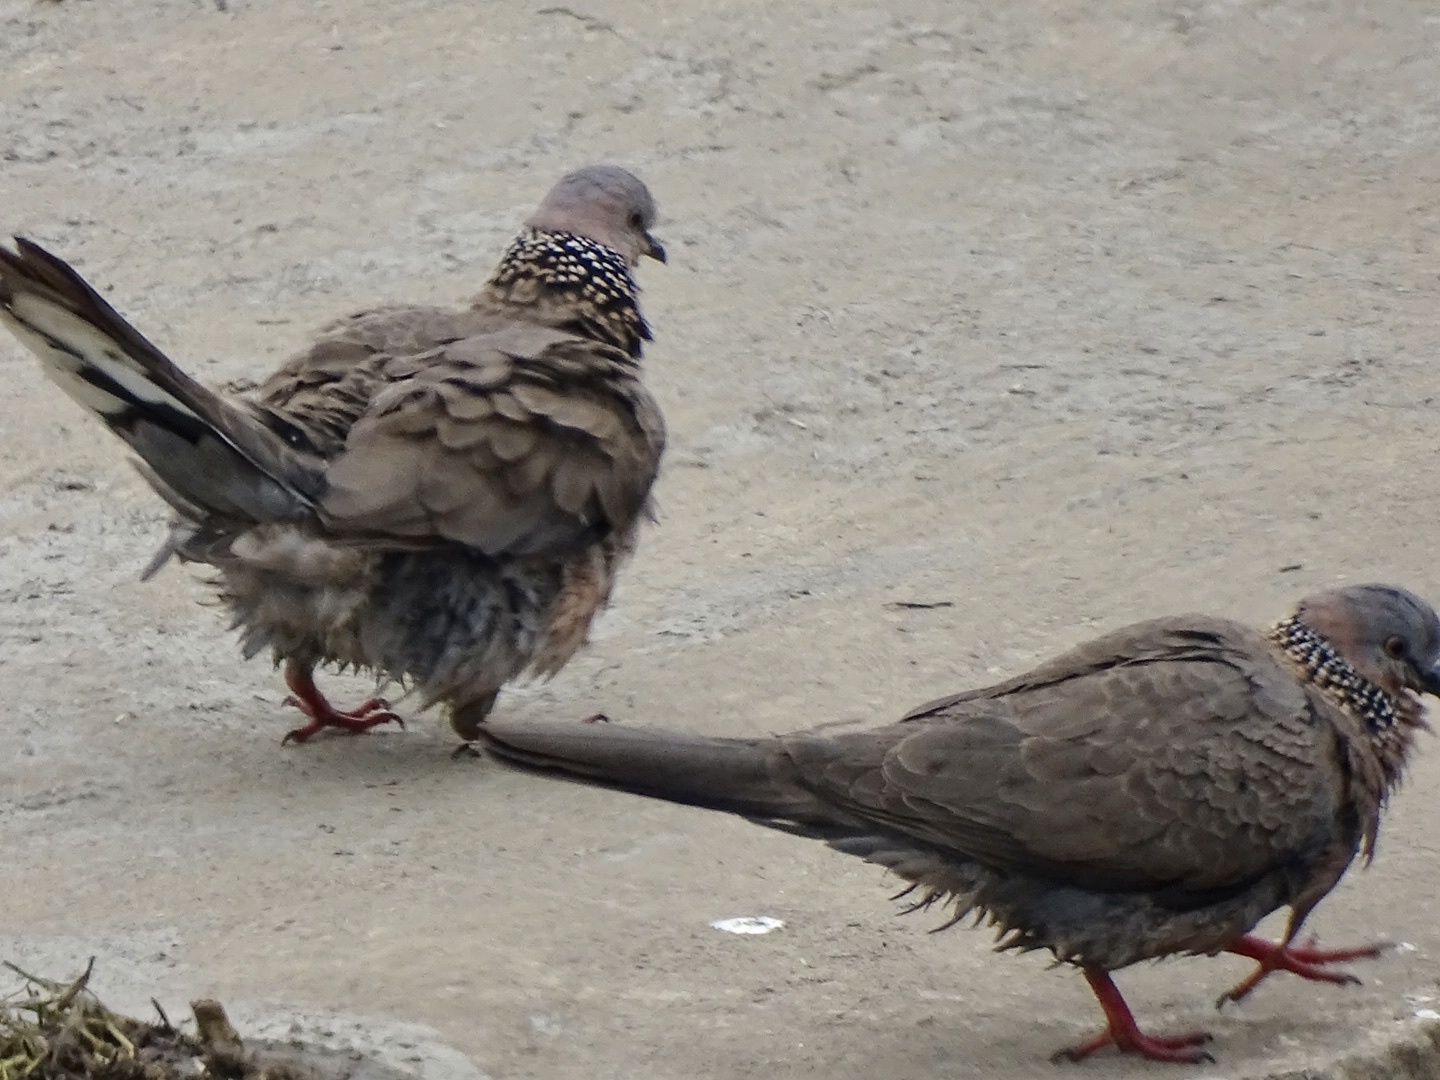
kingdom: Animalia
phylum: Chordata
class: Aves
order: Columbiformes
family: Columbidae
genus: Spilopelia
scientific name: Spilopelia chinensis
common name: Spotted dove
